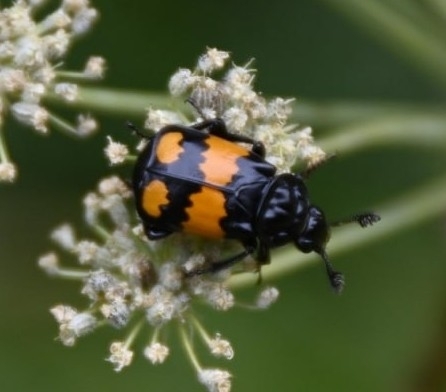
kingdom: Animalia
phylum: Arthropoda
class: Insecta
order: Coleoptera
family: Staphylinidae
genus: Nicrophorus
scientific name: Nicrophorus vespilloides
